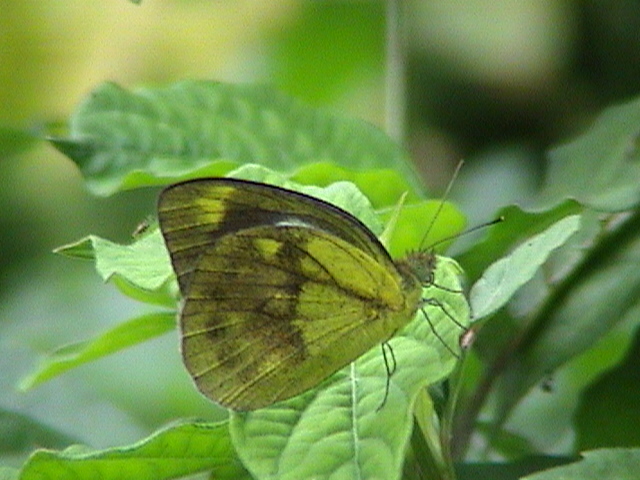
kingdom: Animalia
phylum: Arthropoda
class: Insecta
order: Lepidoptera
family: Pieridae
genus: Cepora
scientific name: Cepora nadina
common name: Lesser gull
